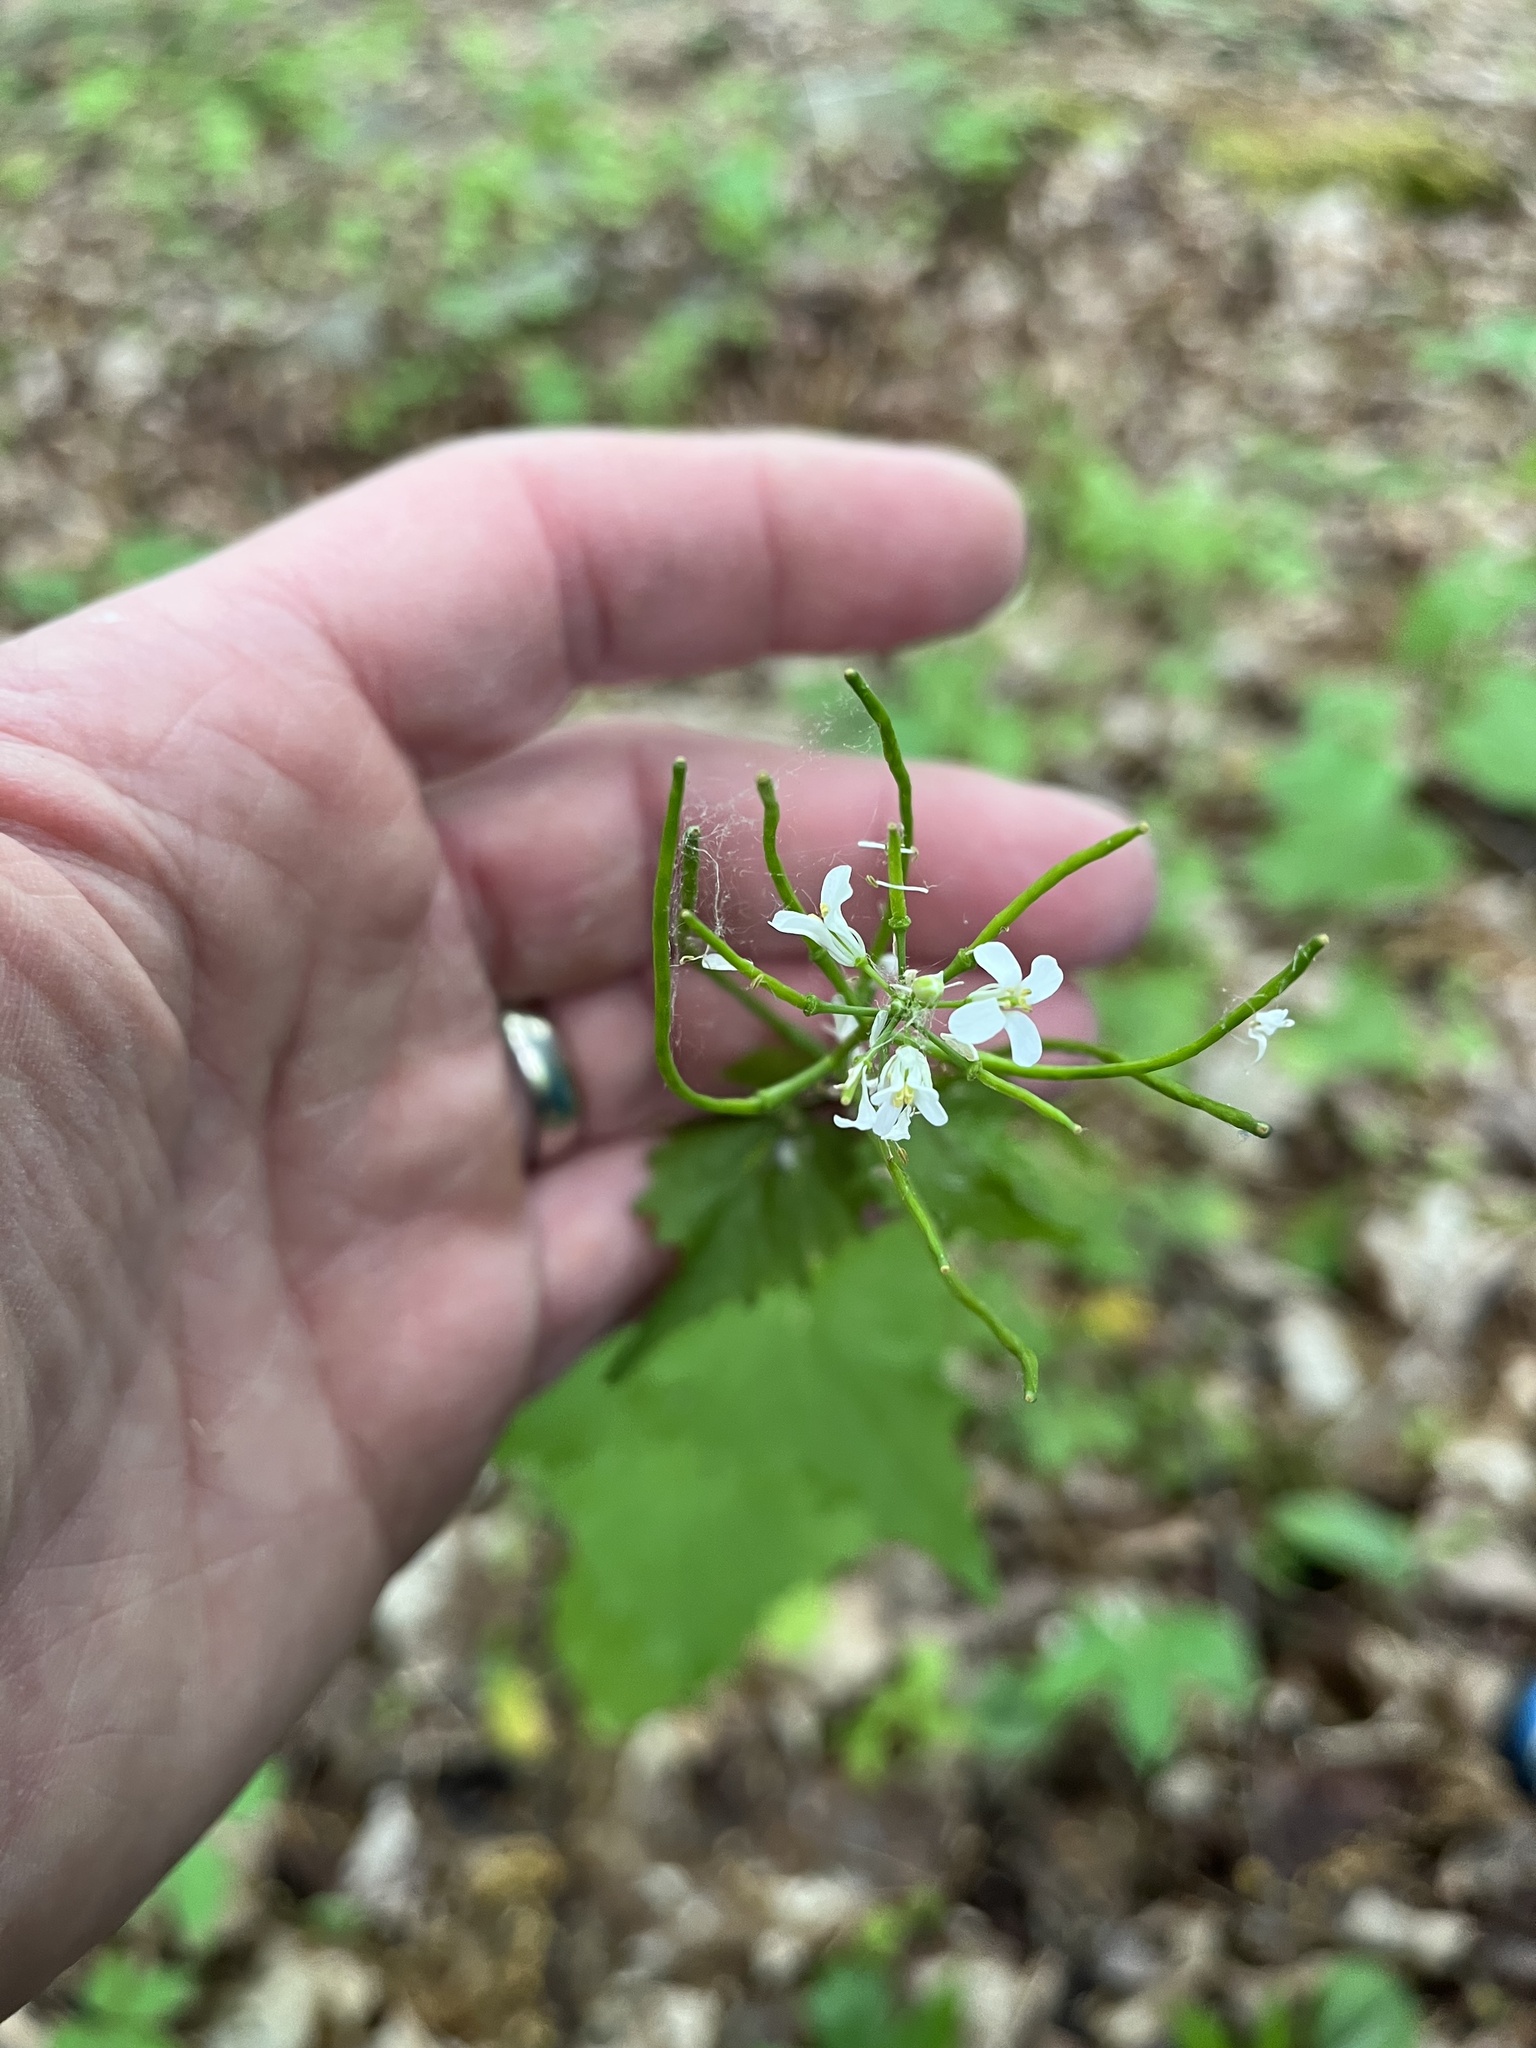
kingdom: Plantae
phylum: Tracheophyta
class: Magnoliopsida
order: Brassicales
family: Brassicaceae
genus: Alliaria
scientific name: Alliaria petiolata
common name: Garlic mustard
